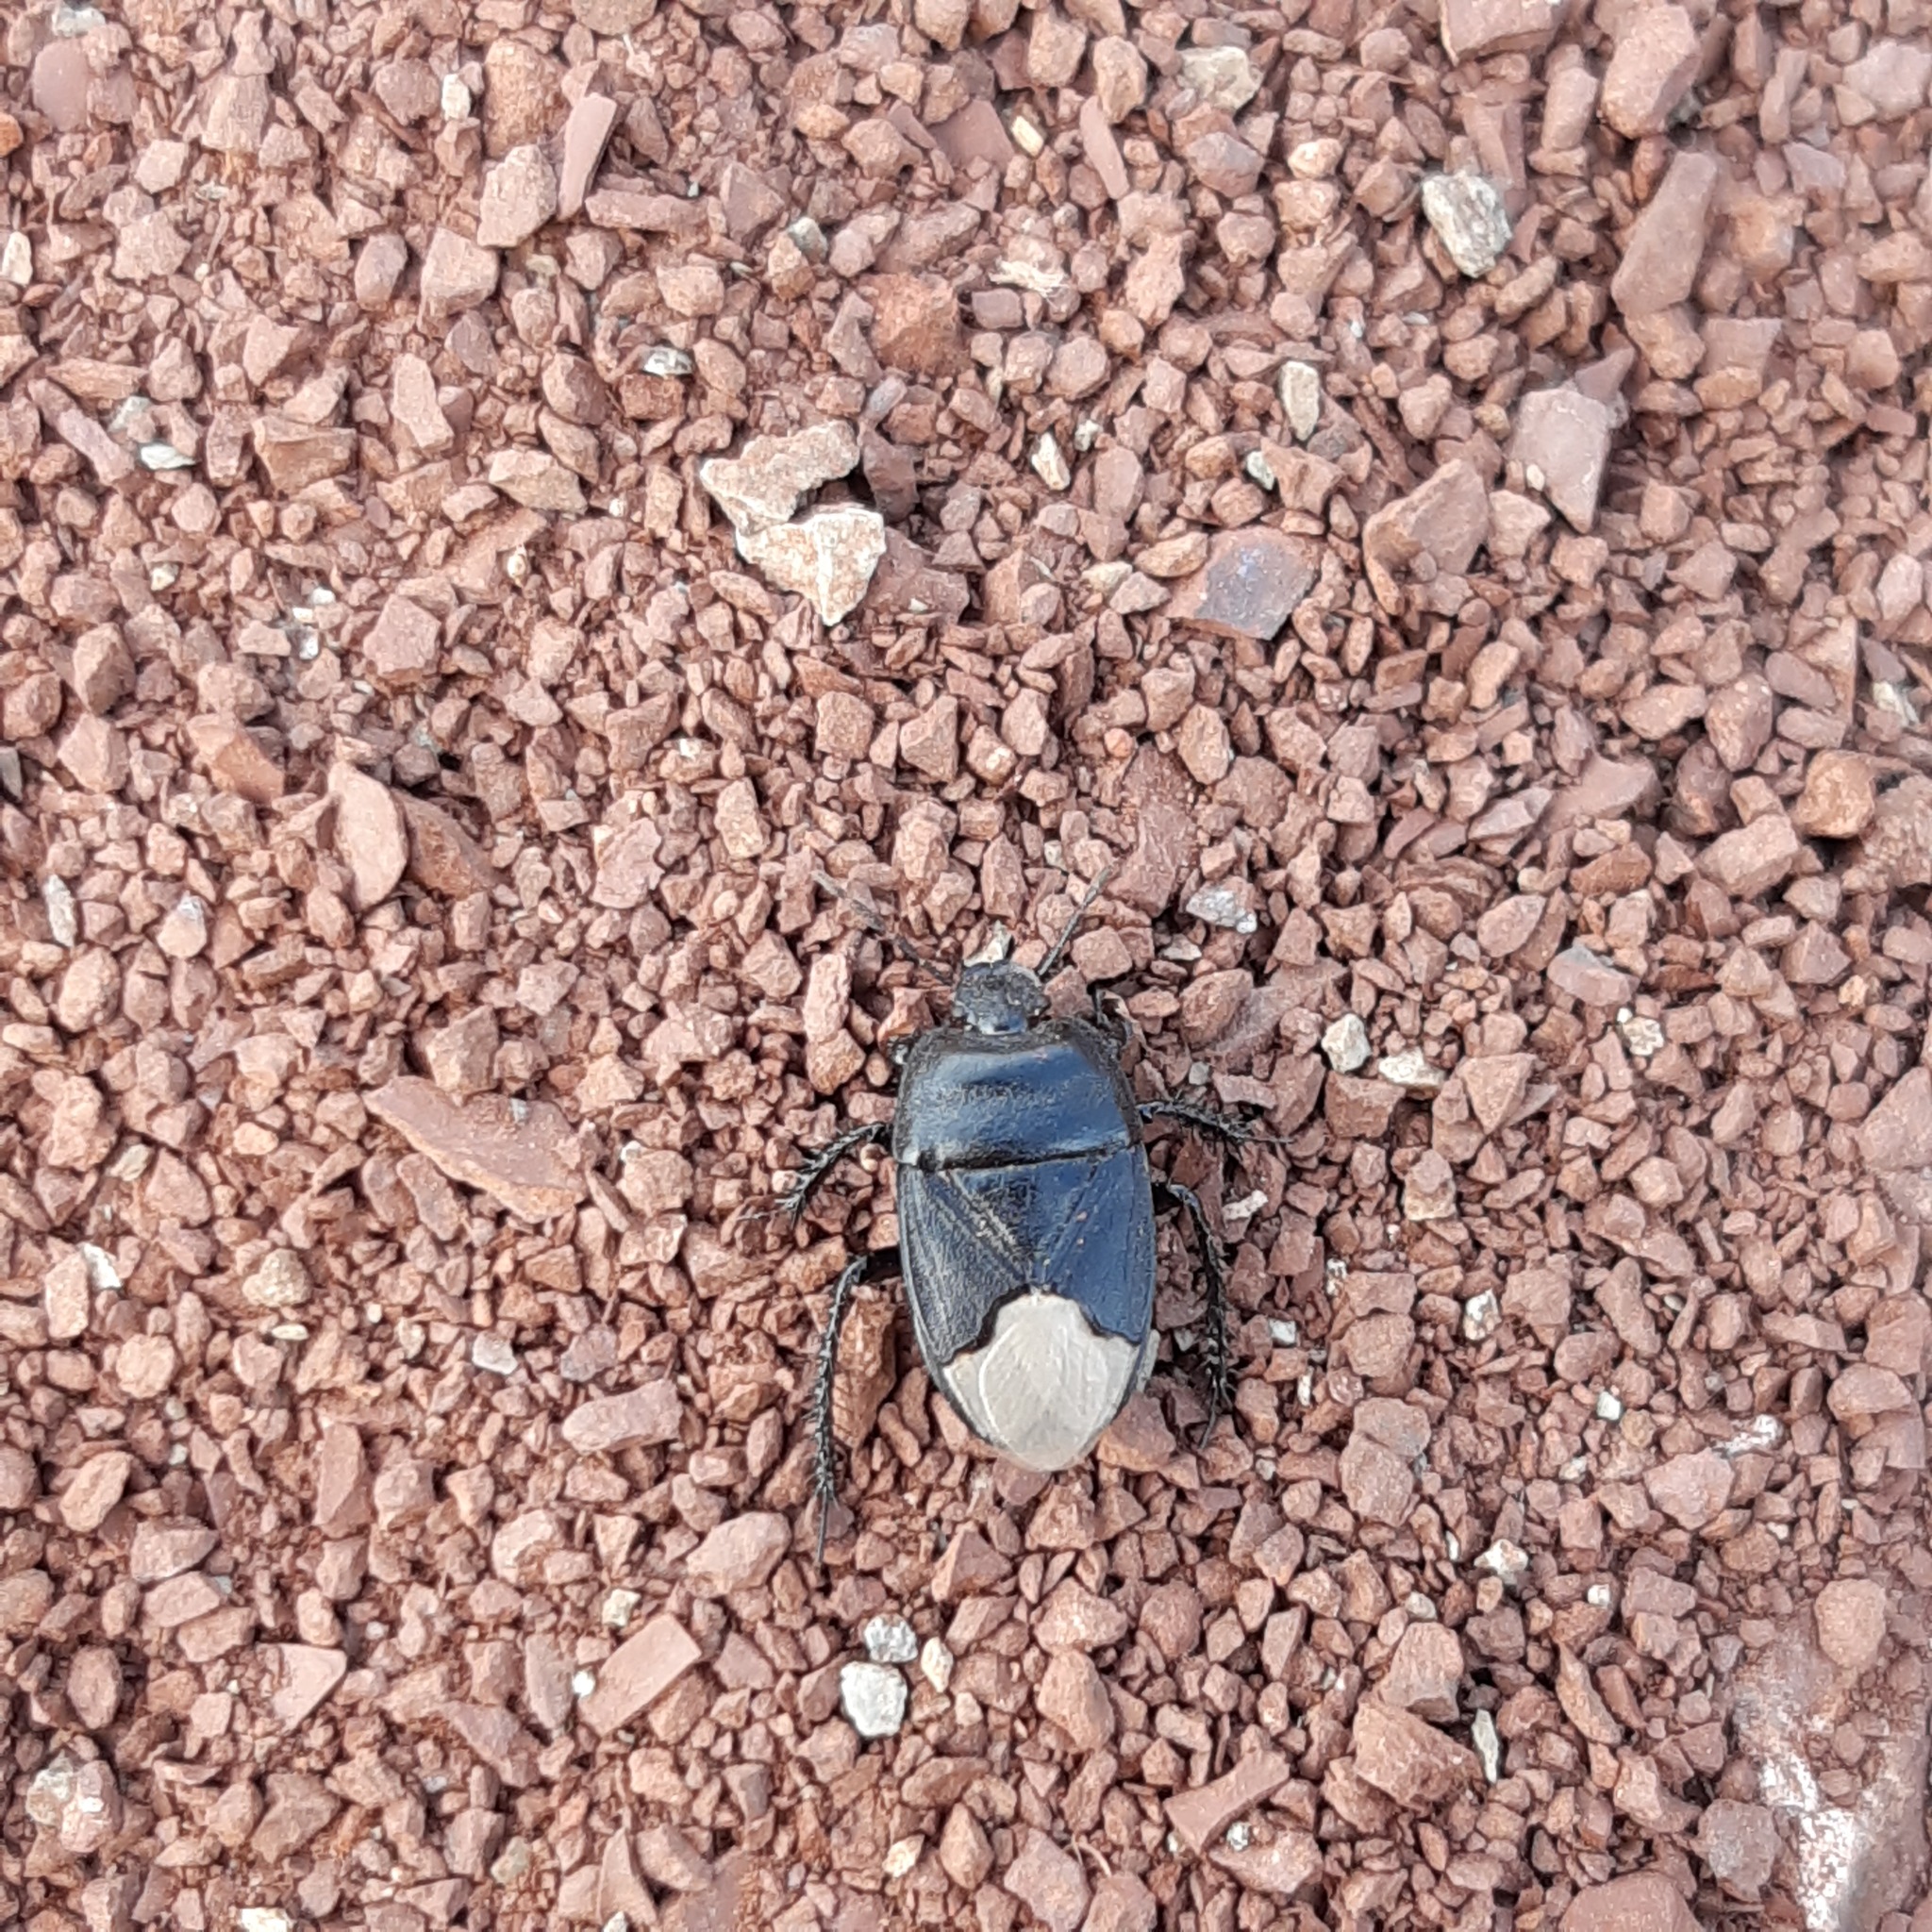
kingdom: Animalia
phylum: Arthropoda
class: Insecta
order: Hemiptera
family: Cydnidae
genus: Cydnus
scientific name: Cydnus aterrimus
